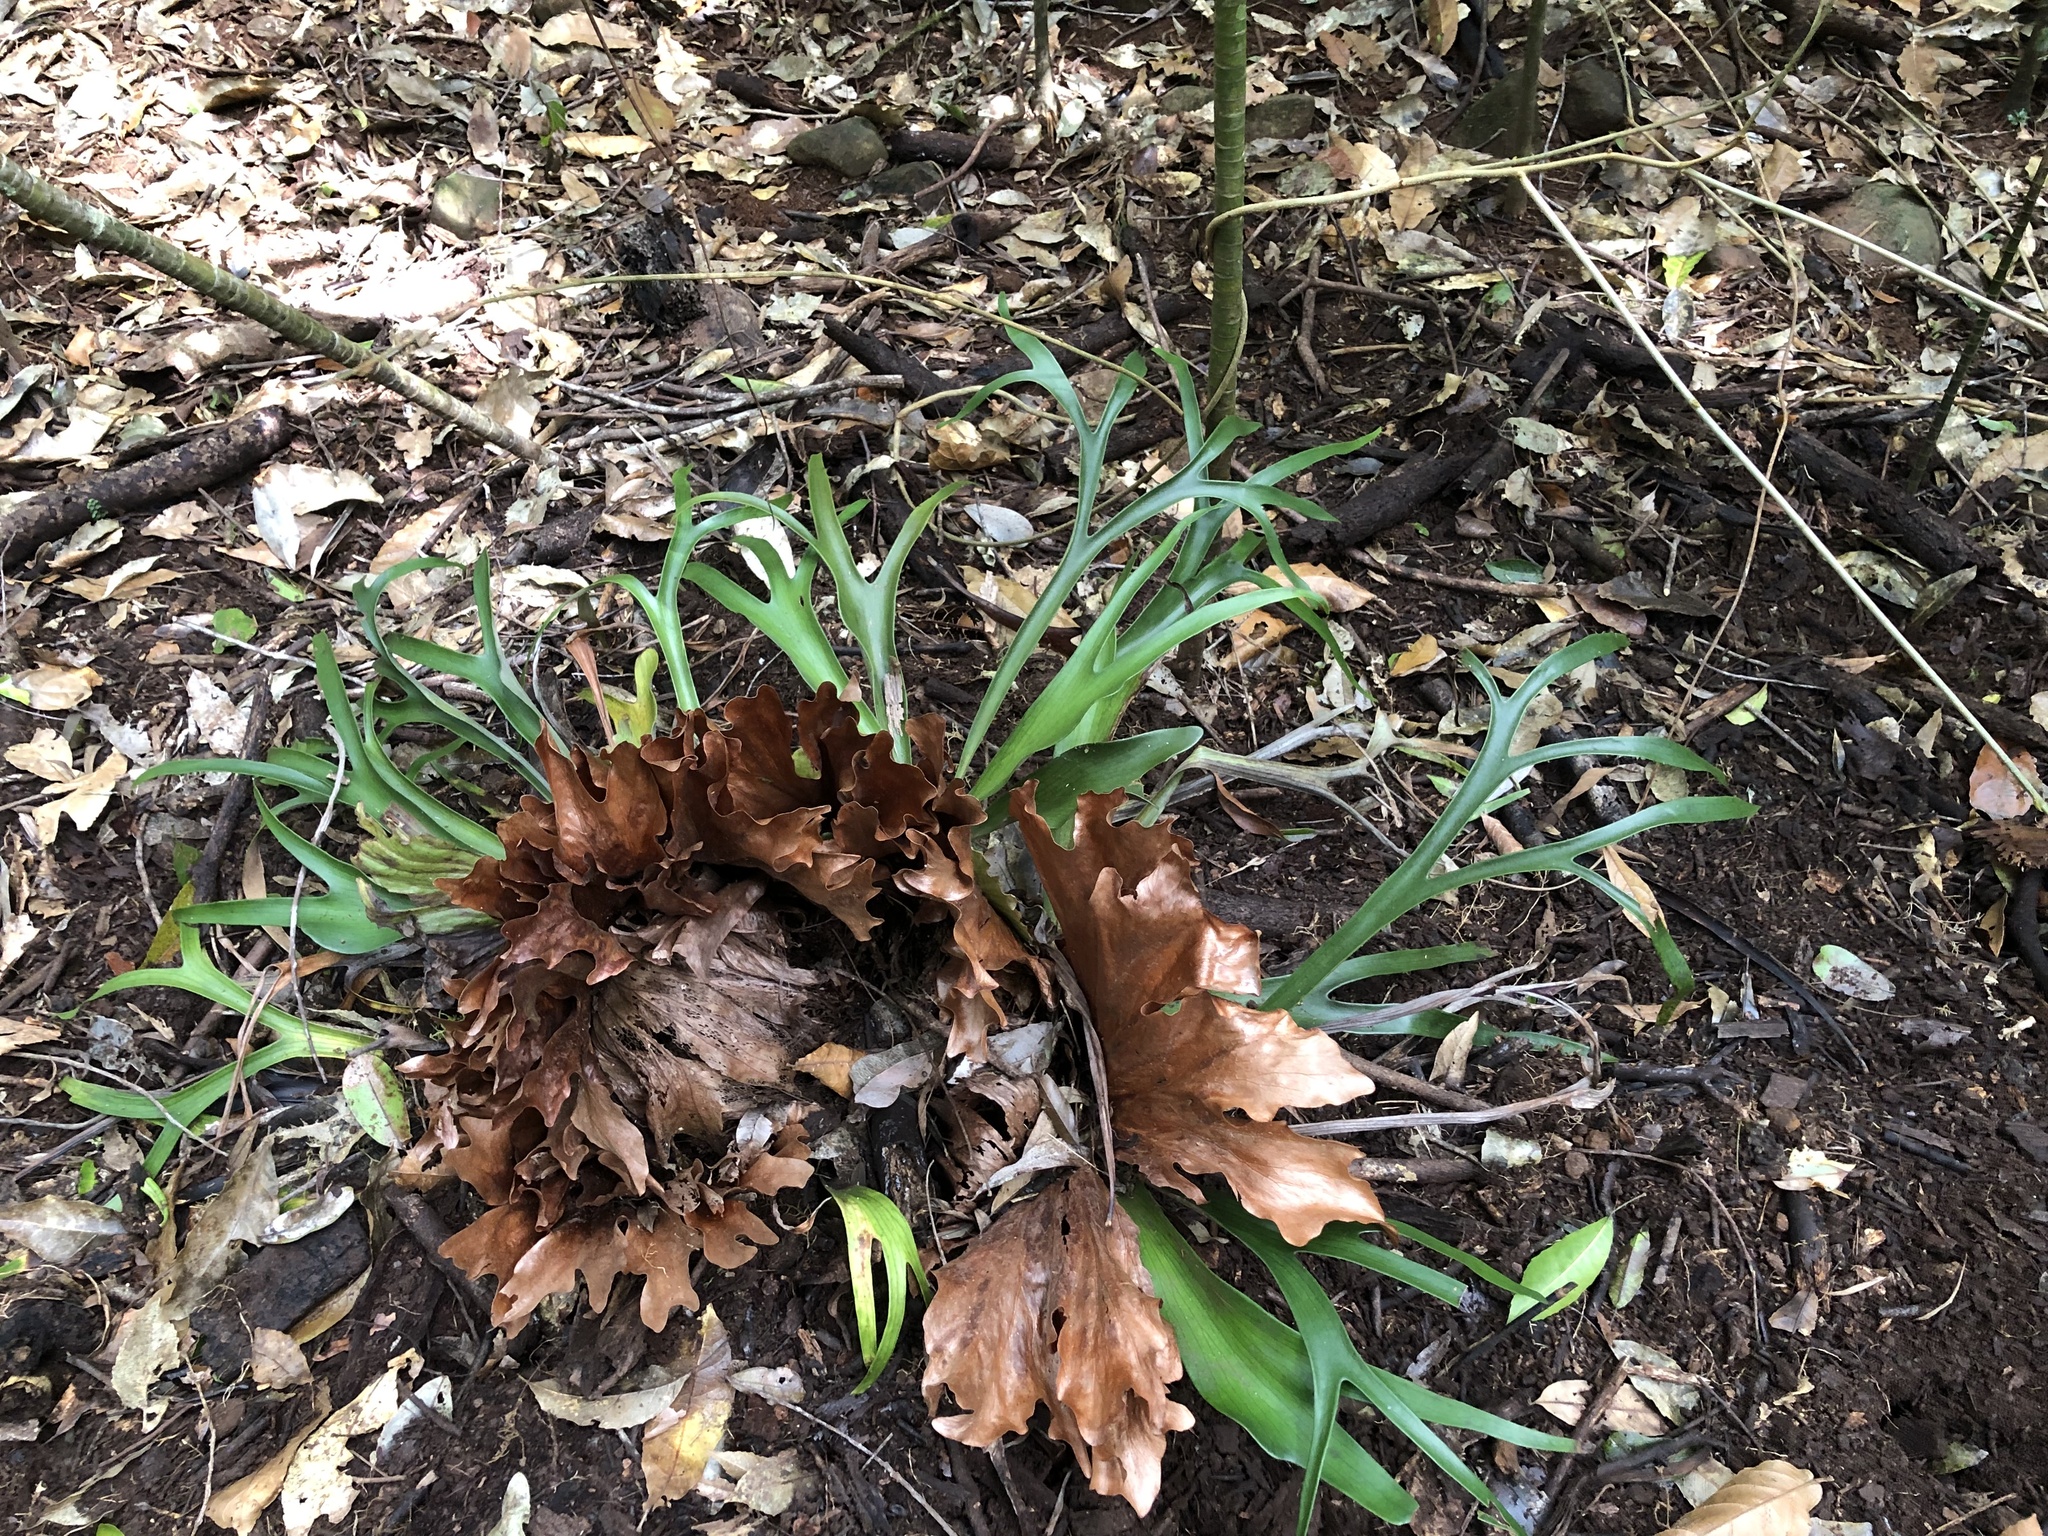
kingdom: Plantae
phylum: Tracheophyta
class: Polypodiopsida
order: Polypodiales
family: Polypodiaceae
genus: Platycerium
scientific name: Platycerium bifurcatum
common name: Elkhorn fern
